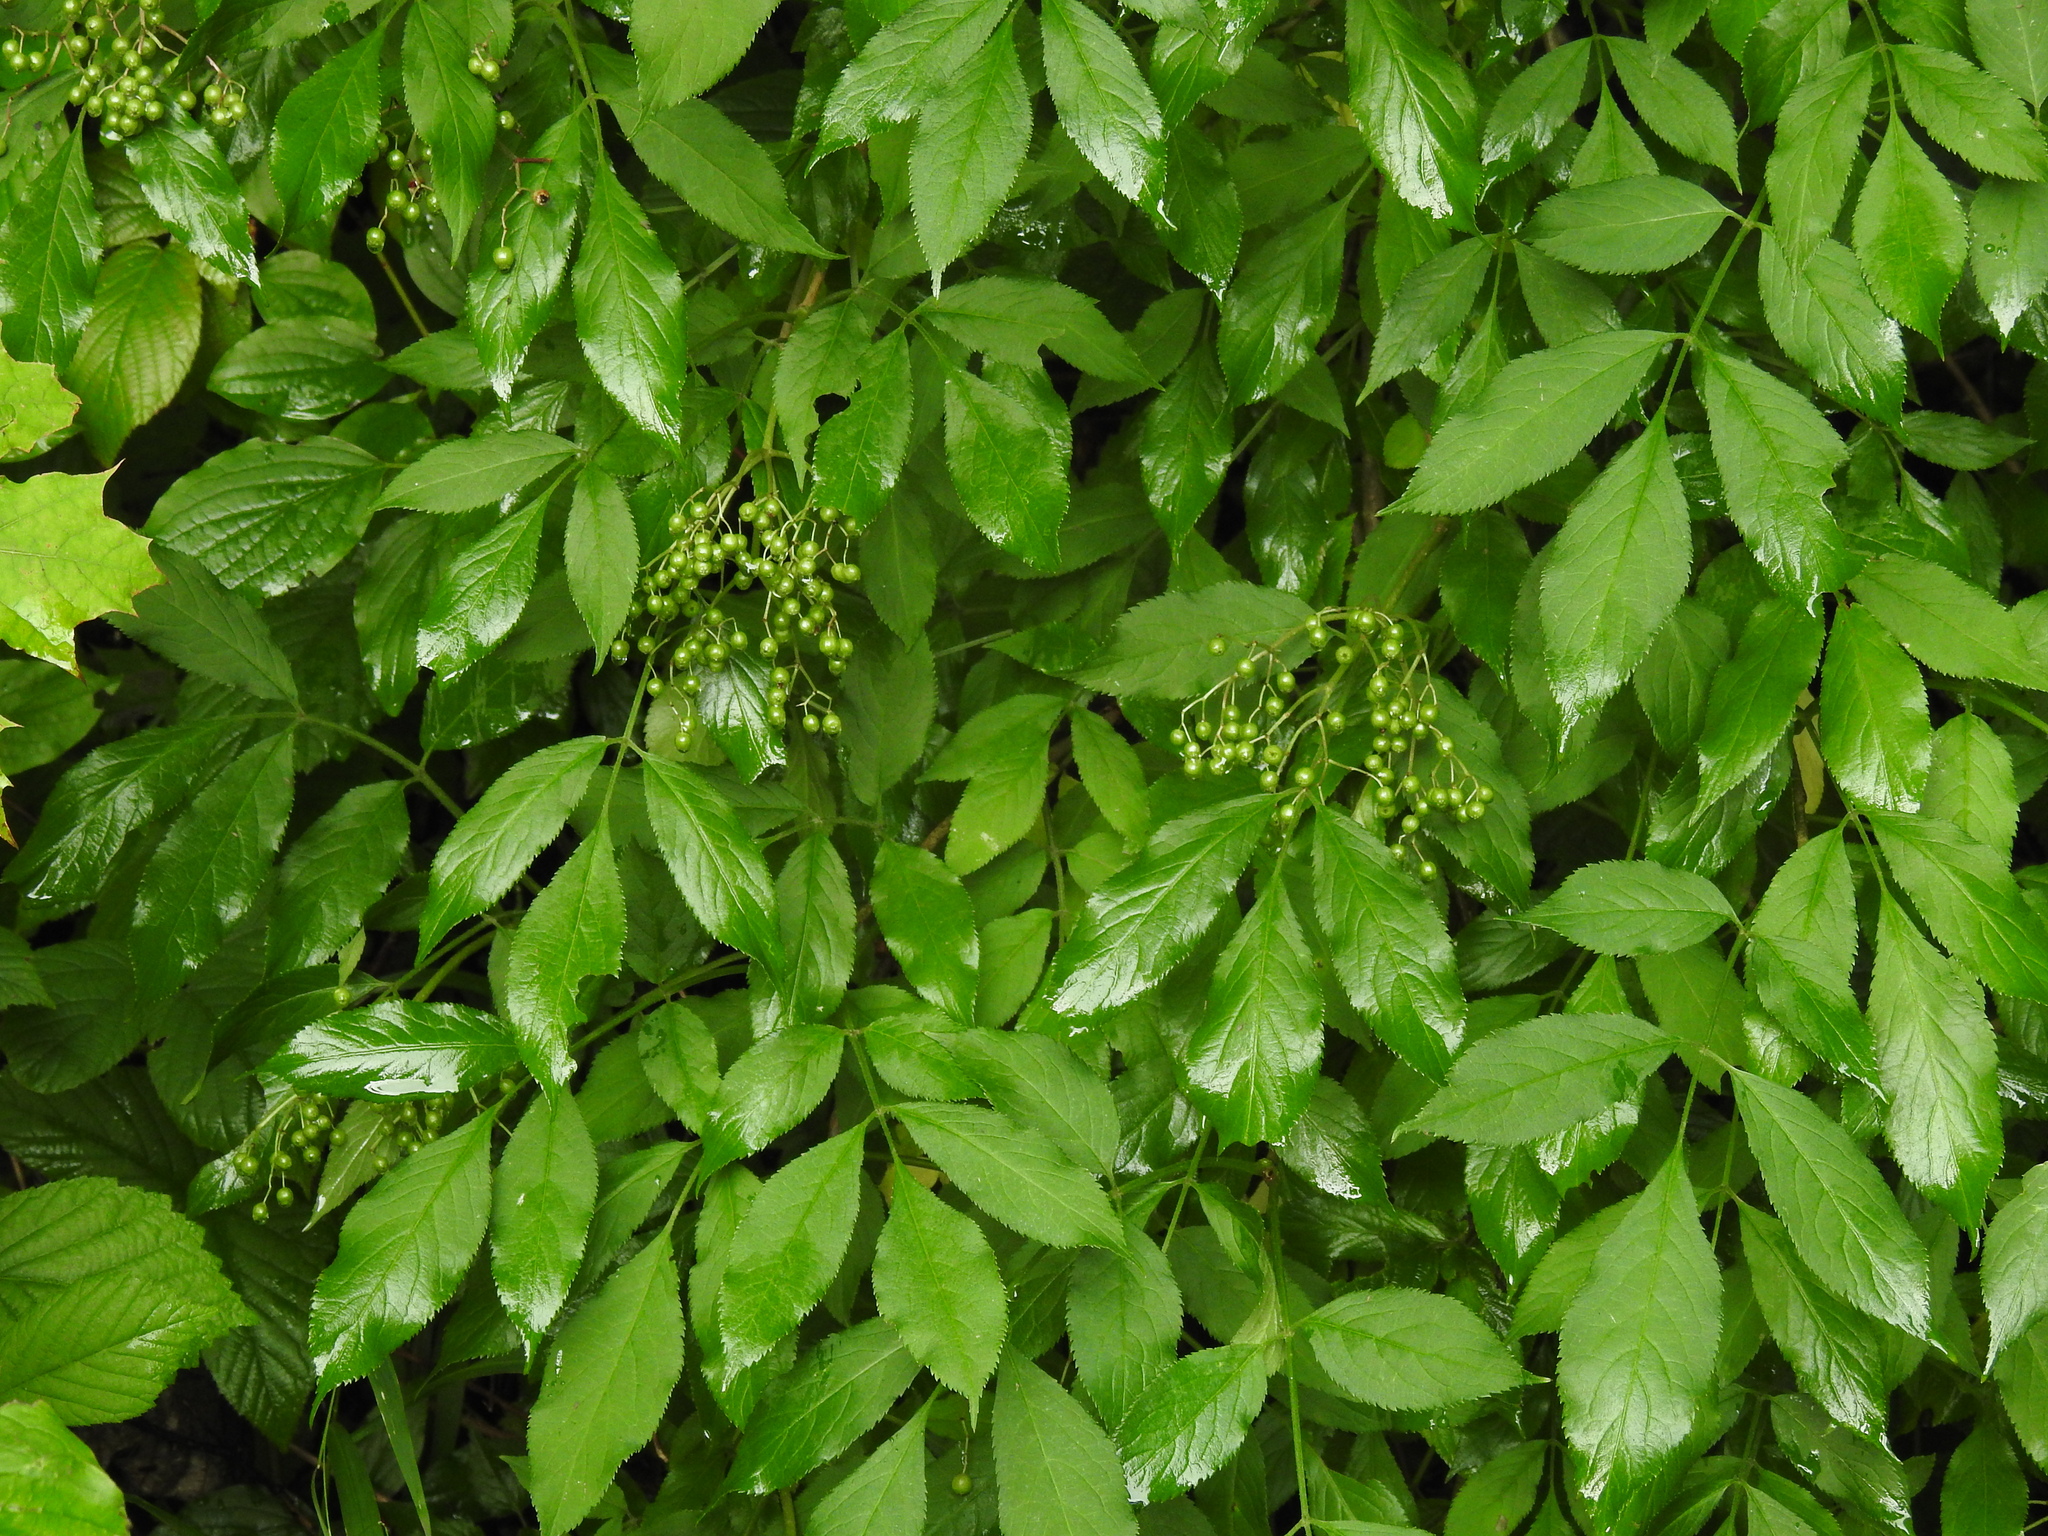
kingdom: Plantae
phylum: Tracheophyta
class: Magnoliopsida
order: Dipsacales
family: Viburnaceae
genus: Sambucus
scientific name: Sambucus nigra
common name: Elder
